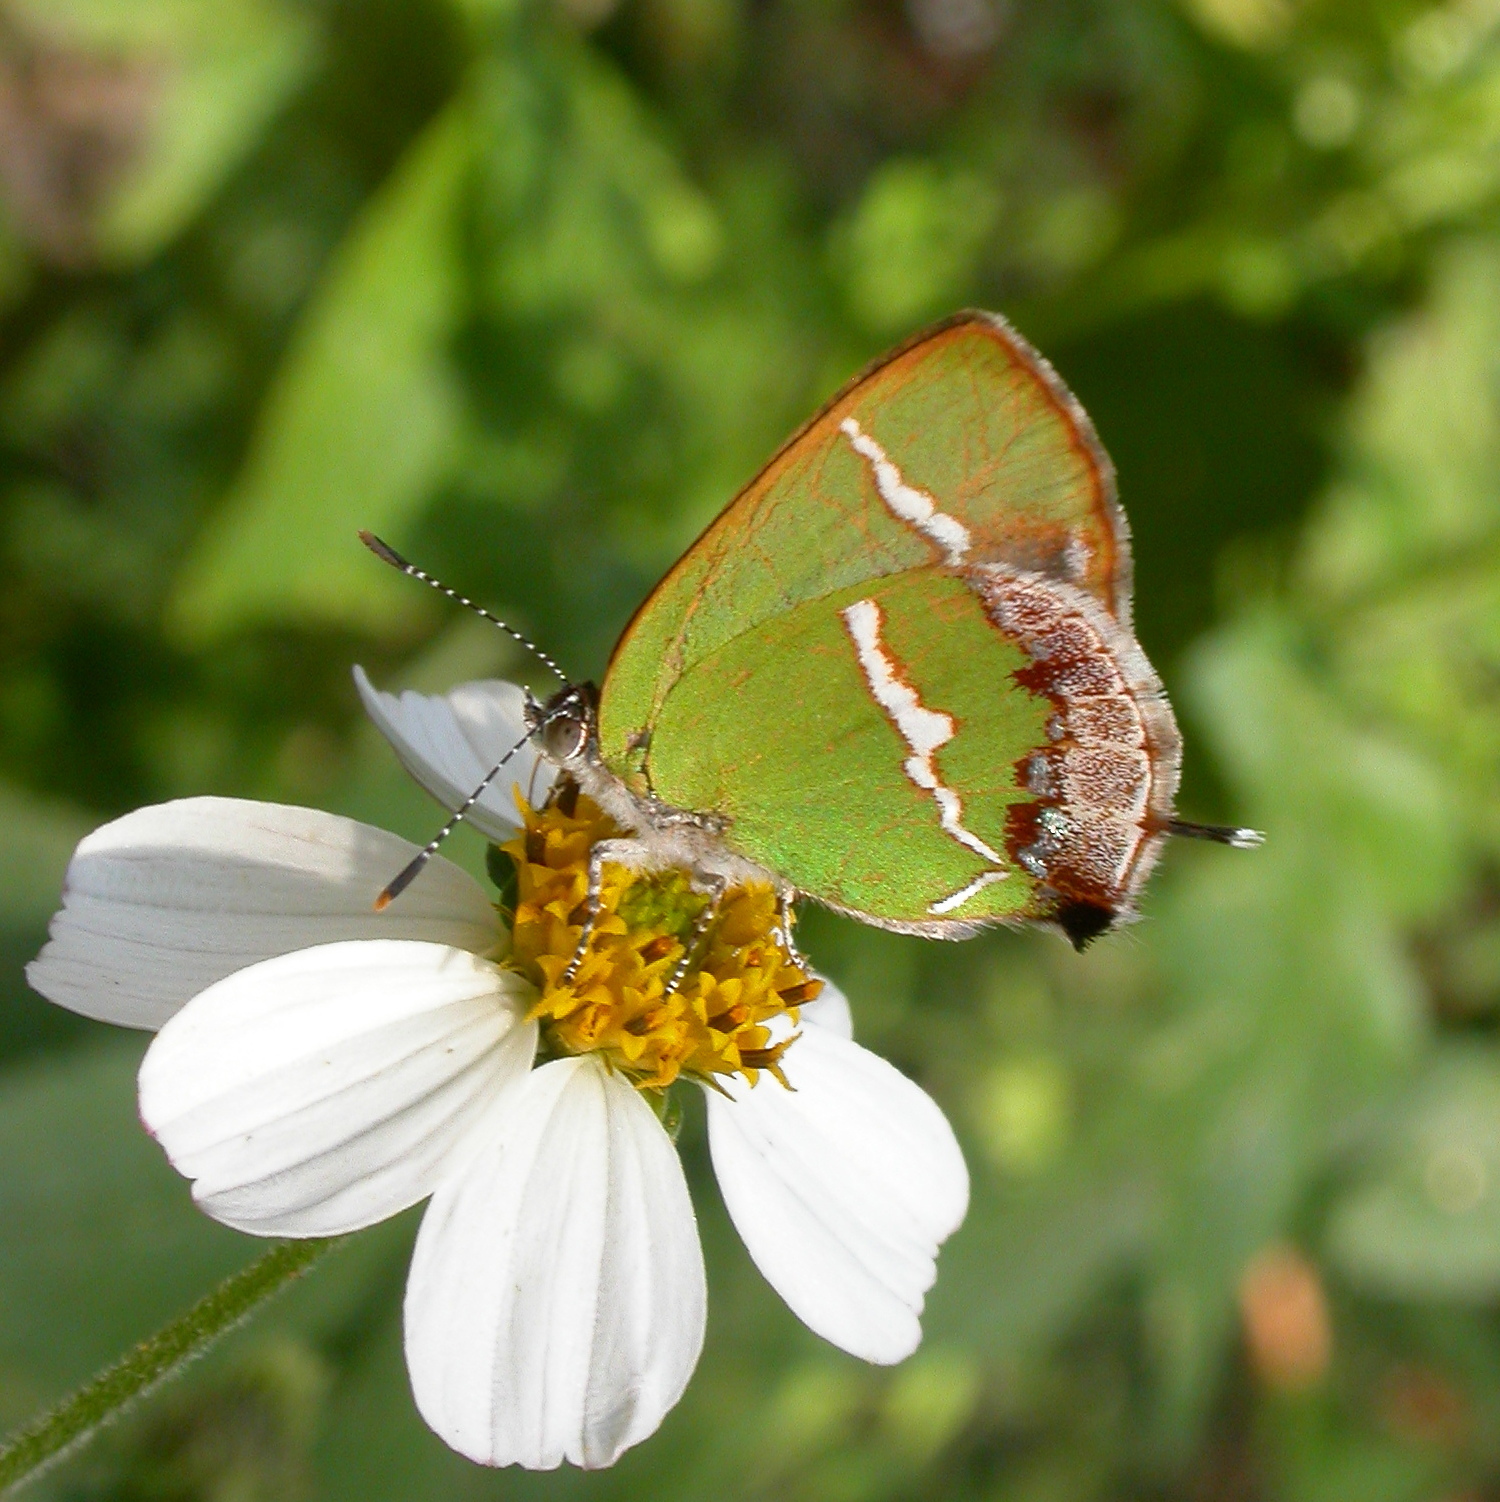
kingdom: Animalia
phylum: Arthropoda
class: Insecta
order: Lepidoptera
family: Lycaenidae
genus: Chlorostrymon
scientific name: Chlorostrymon simaethis
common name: Silver-banded hairstreak
